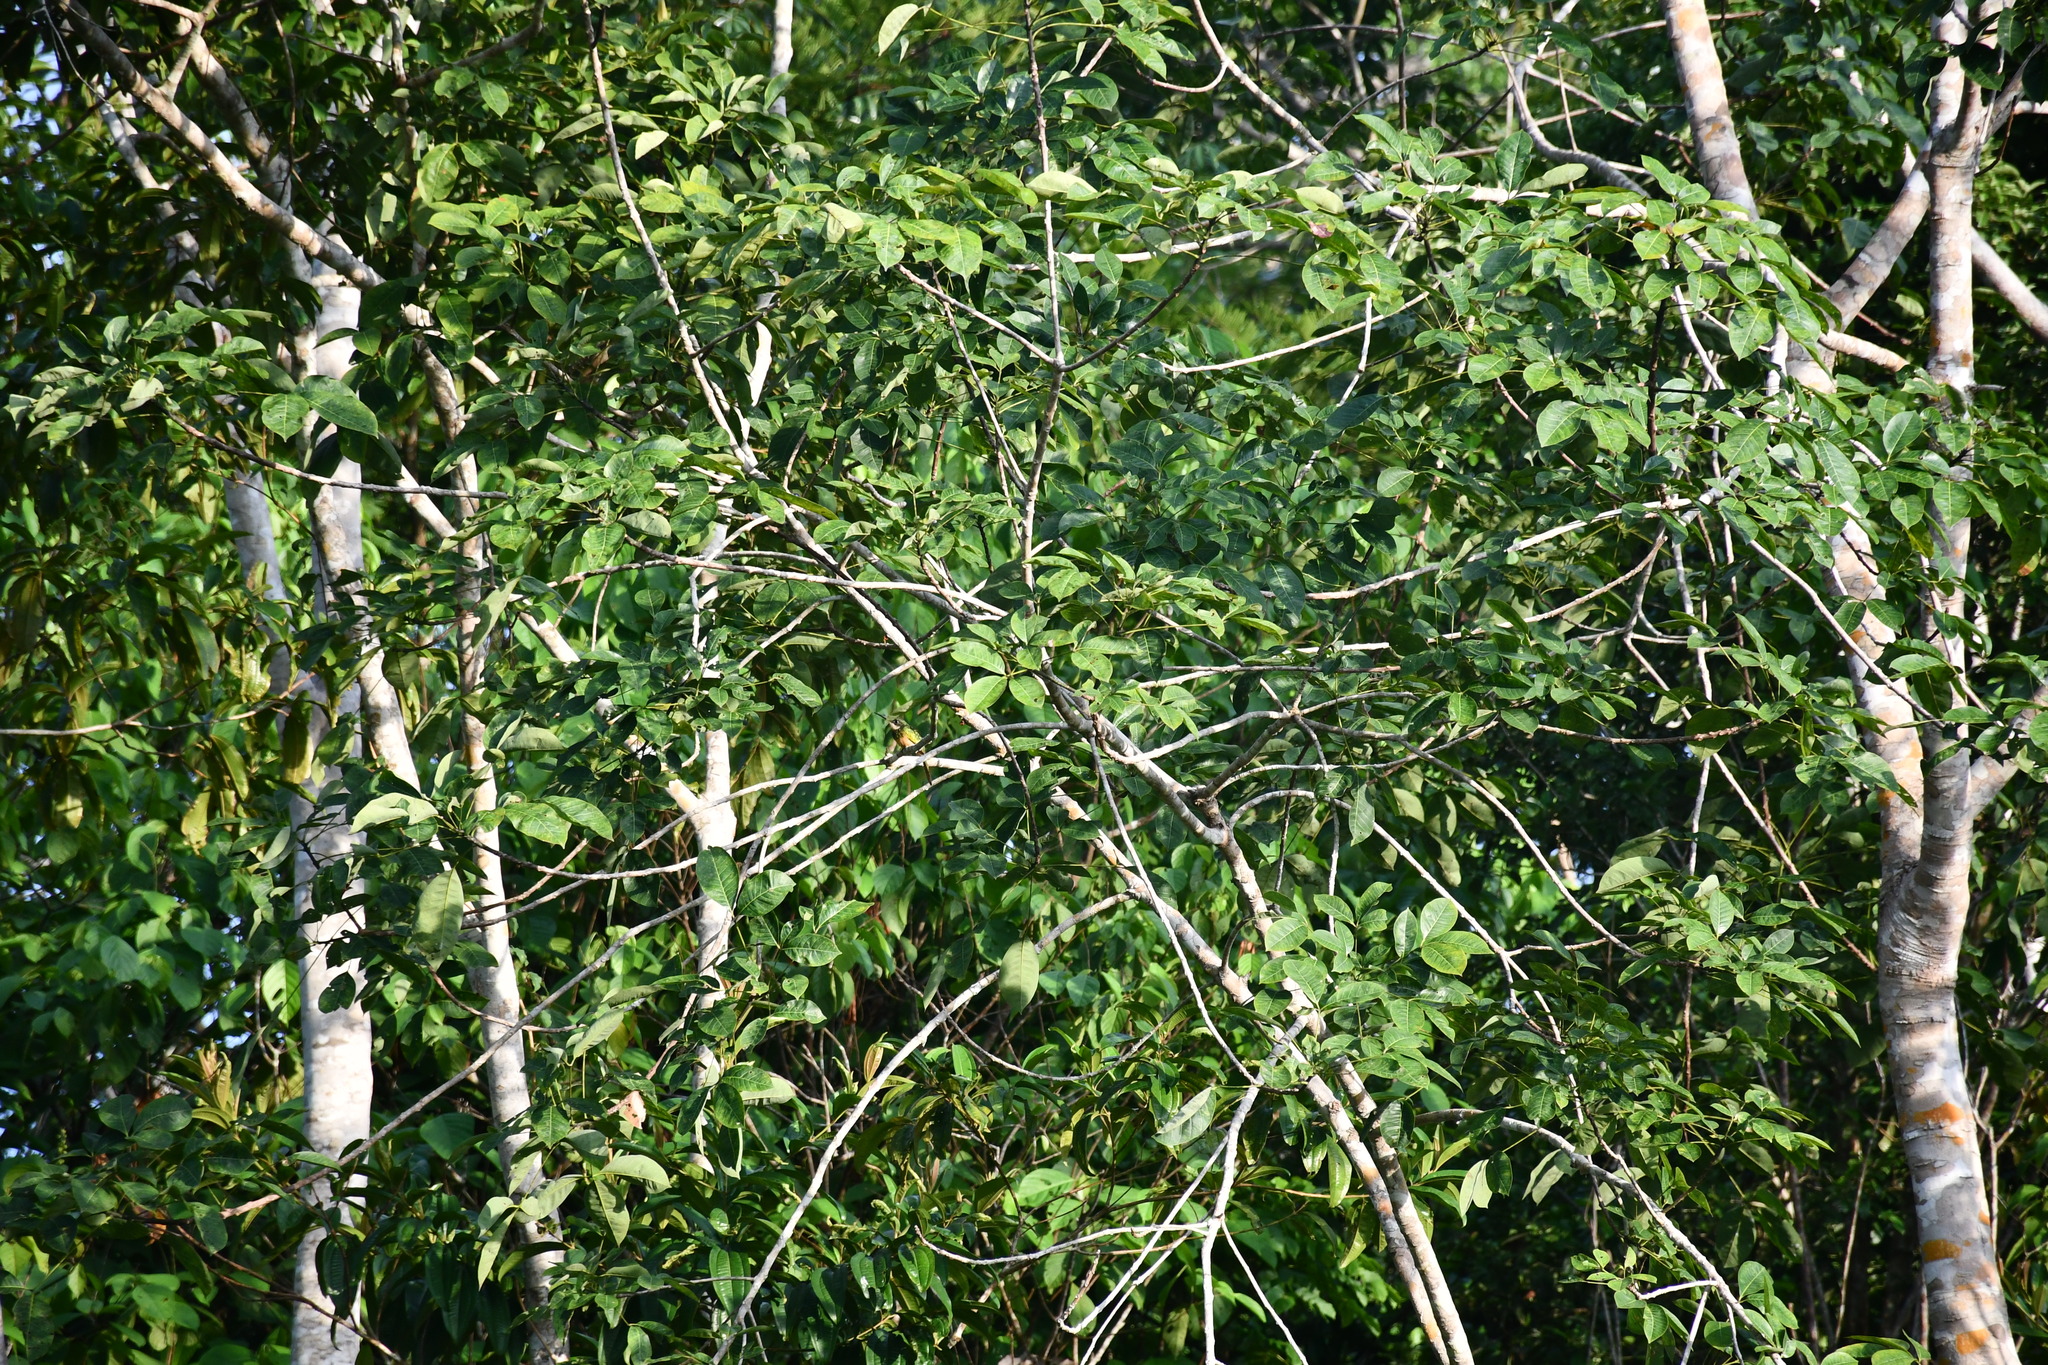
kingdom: Animalia
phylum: Chordata
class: Aves
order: Piciformes
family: Galbulidae
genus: Galbula
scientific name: Galbula ruficauda
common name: Rufous-tailed jacamar
